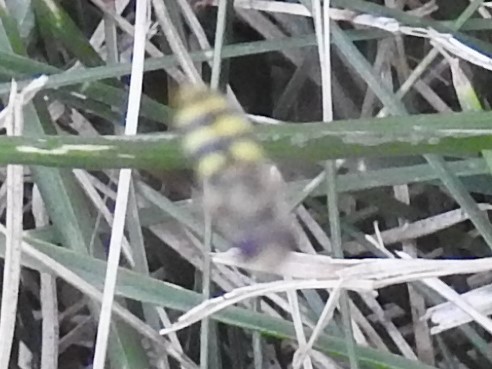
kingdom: Animalia
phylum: Arthropoda
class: Insecta
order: Diptera
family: Syrphidae
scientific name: Syrphidae
